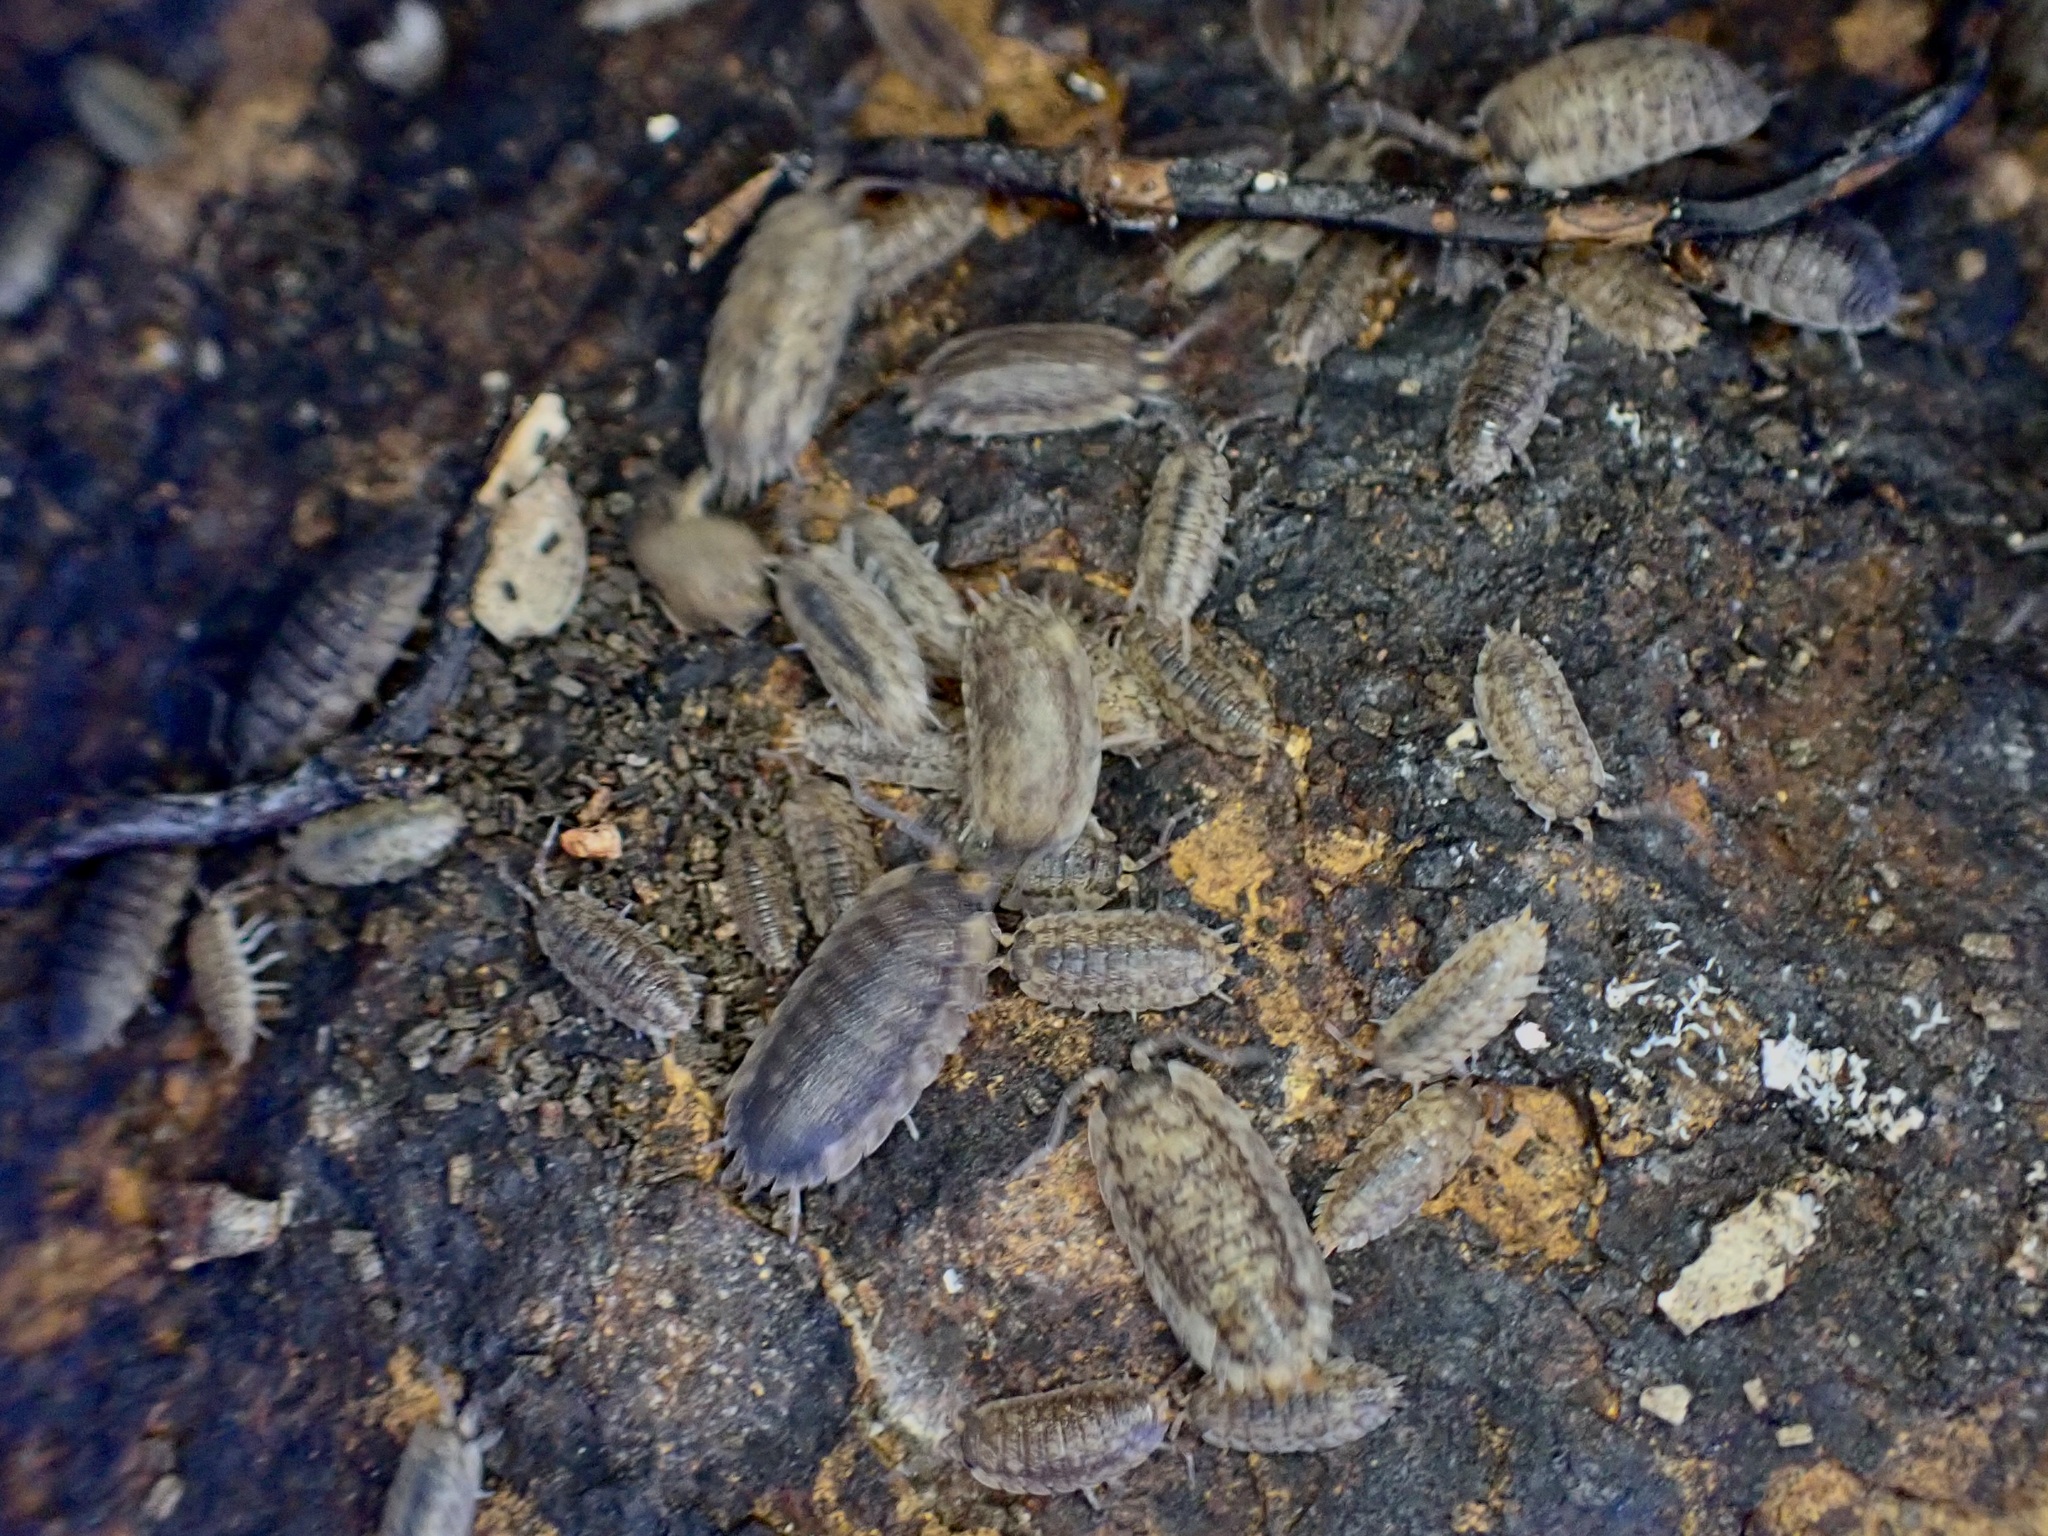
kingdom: Animalia
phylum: Arthropoda
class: Malacostraca
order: Isopoda
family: Porcellionidae
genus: Porcellio
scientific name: Porcellio scaber
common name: Common rough woodlouse
